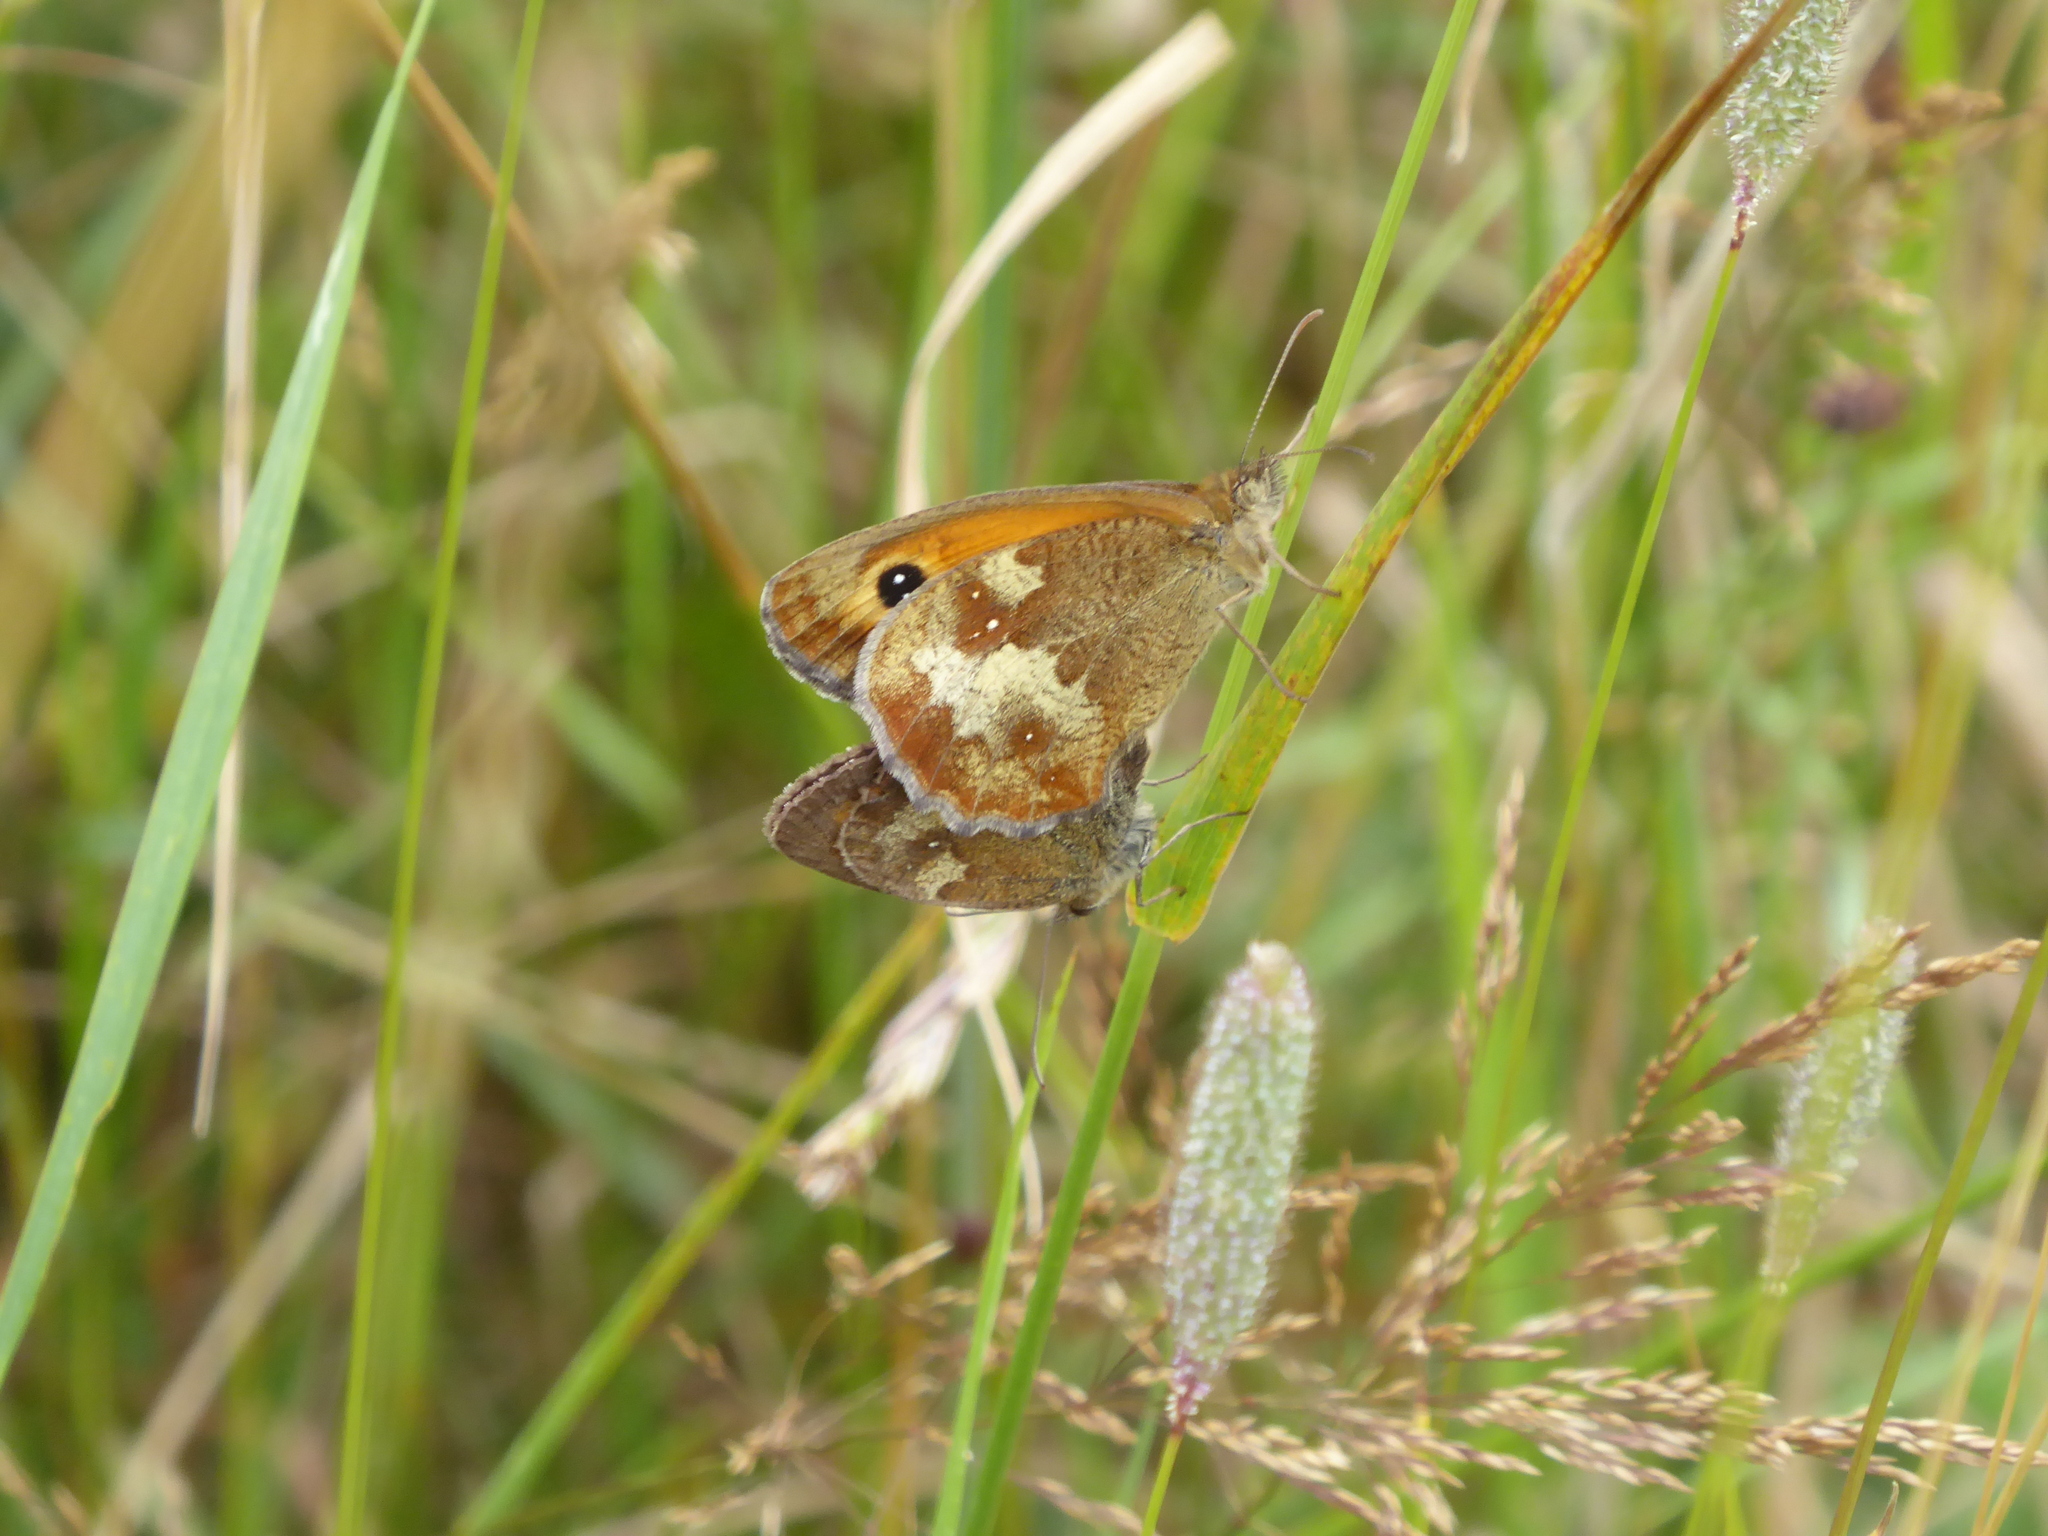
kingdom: Animalia
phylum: Arthropoda
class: Insecta
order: Lepidoptera
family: Nymphalidae
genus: Pyronia
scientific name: Pyronia tithonus
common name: Gatekeeper
